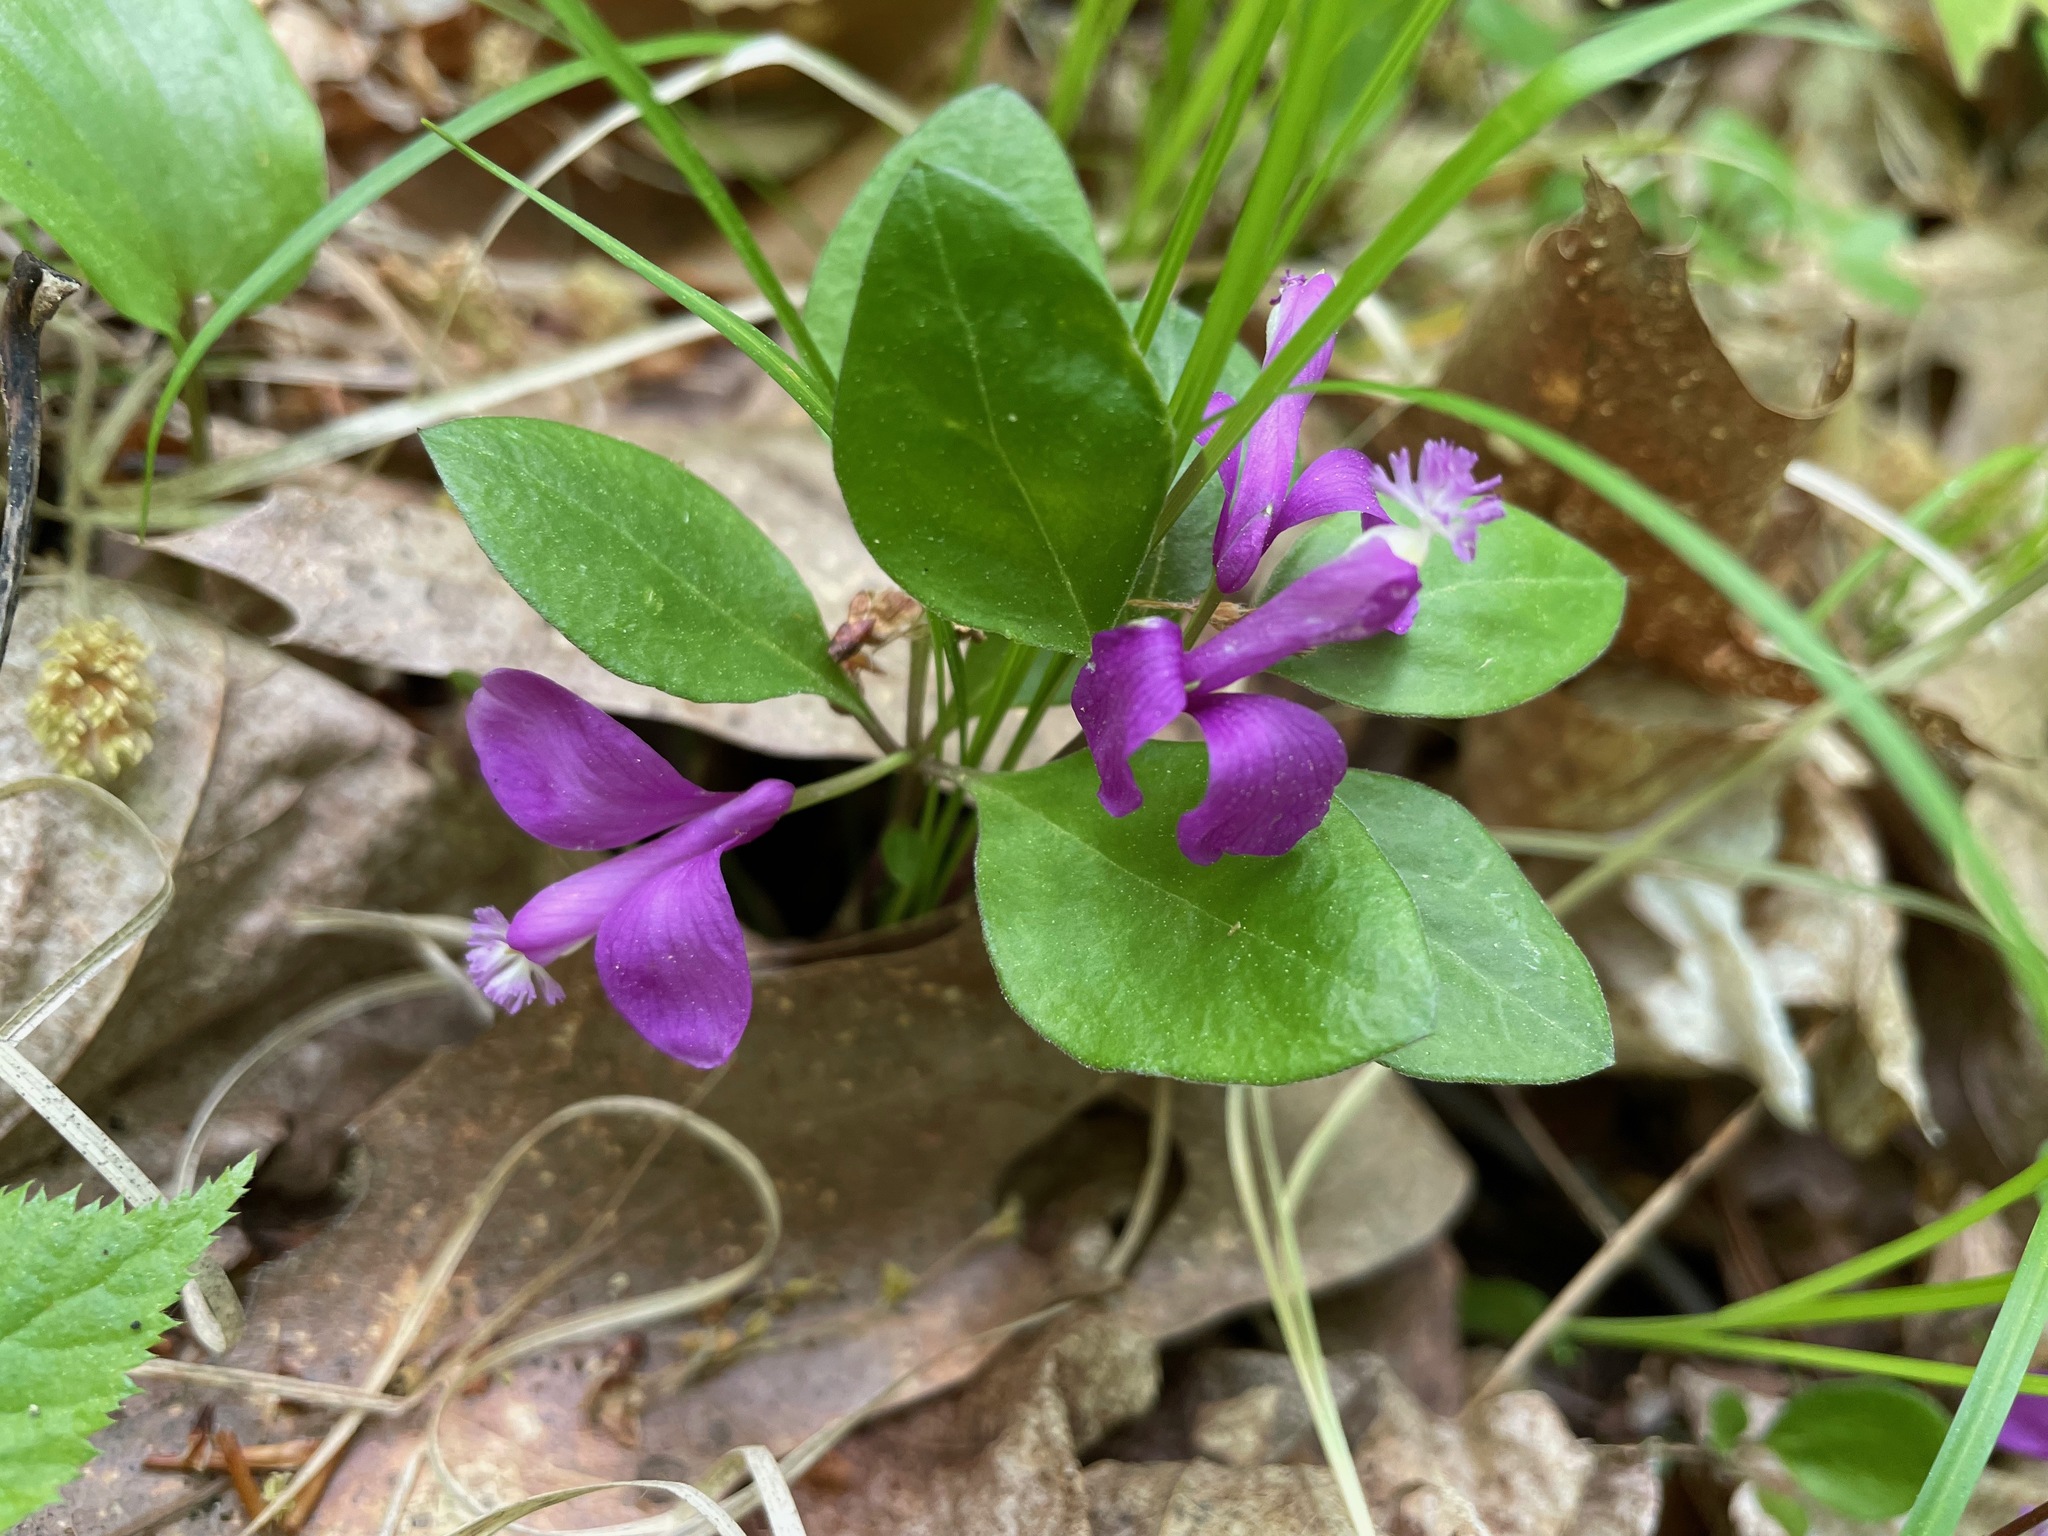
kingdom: Plantae
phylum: Tracheophyta
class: Magnoliopsida
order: Fabales
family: Polygalaceae
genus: Polygaloides
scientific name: Polygaloides paucifolia
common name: Bird-on-the-wing
